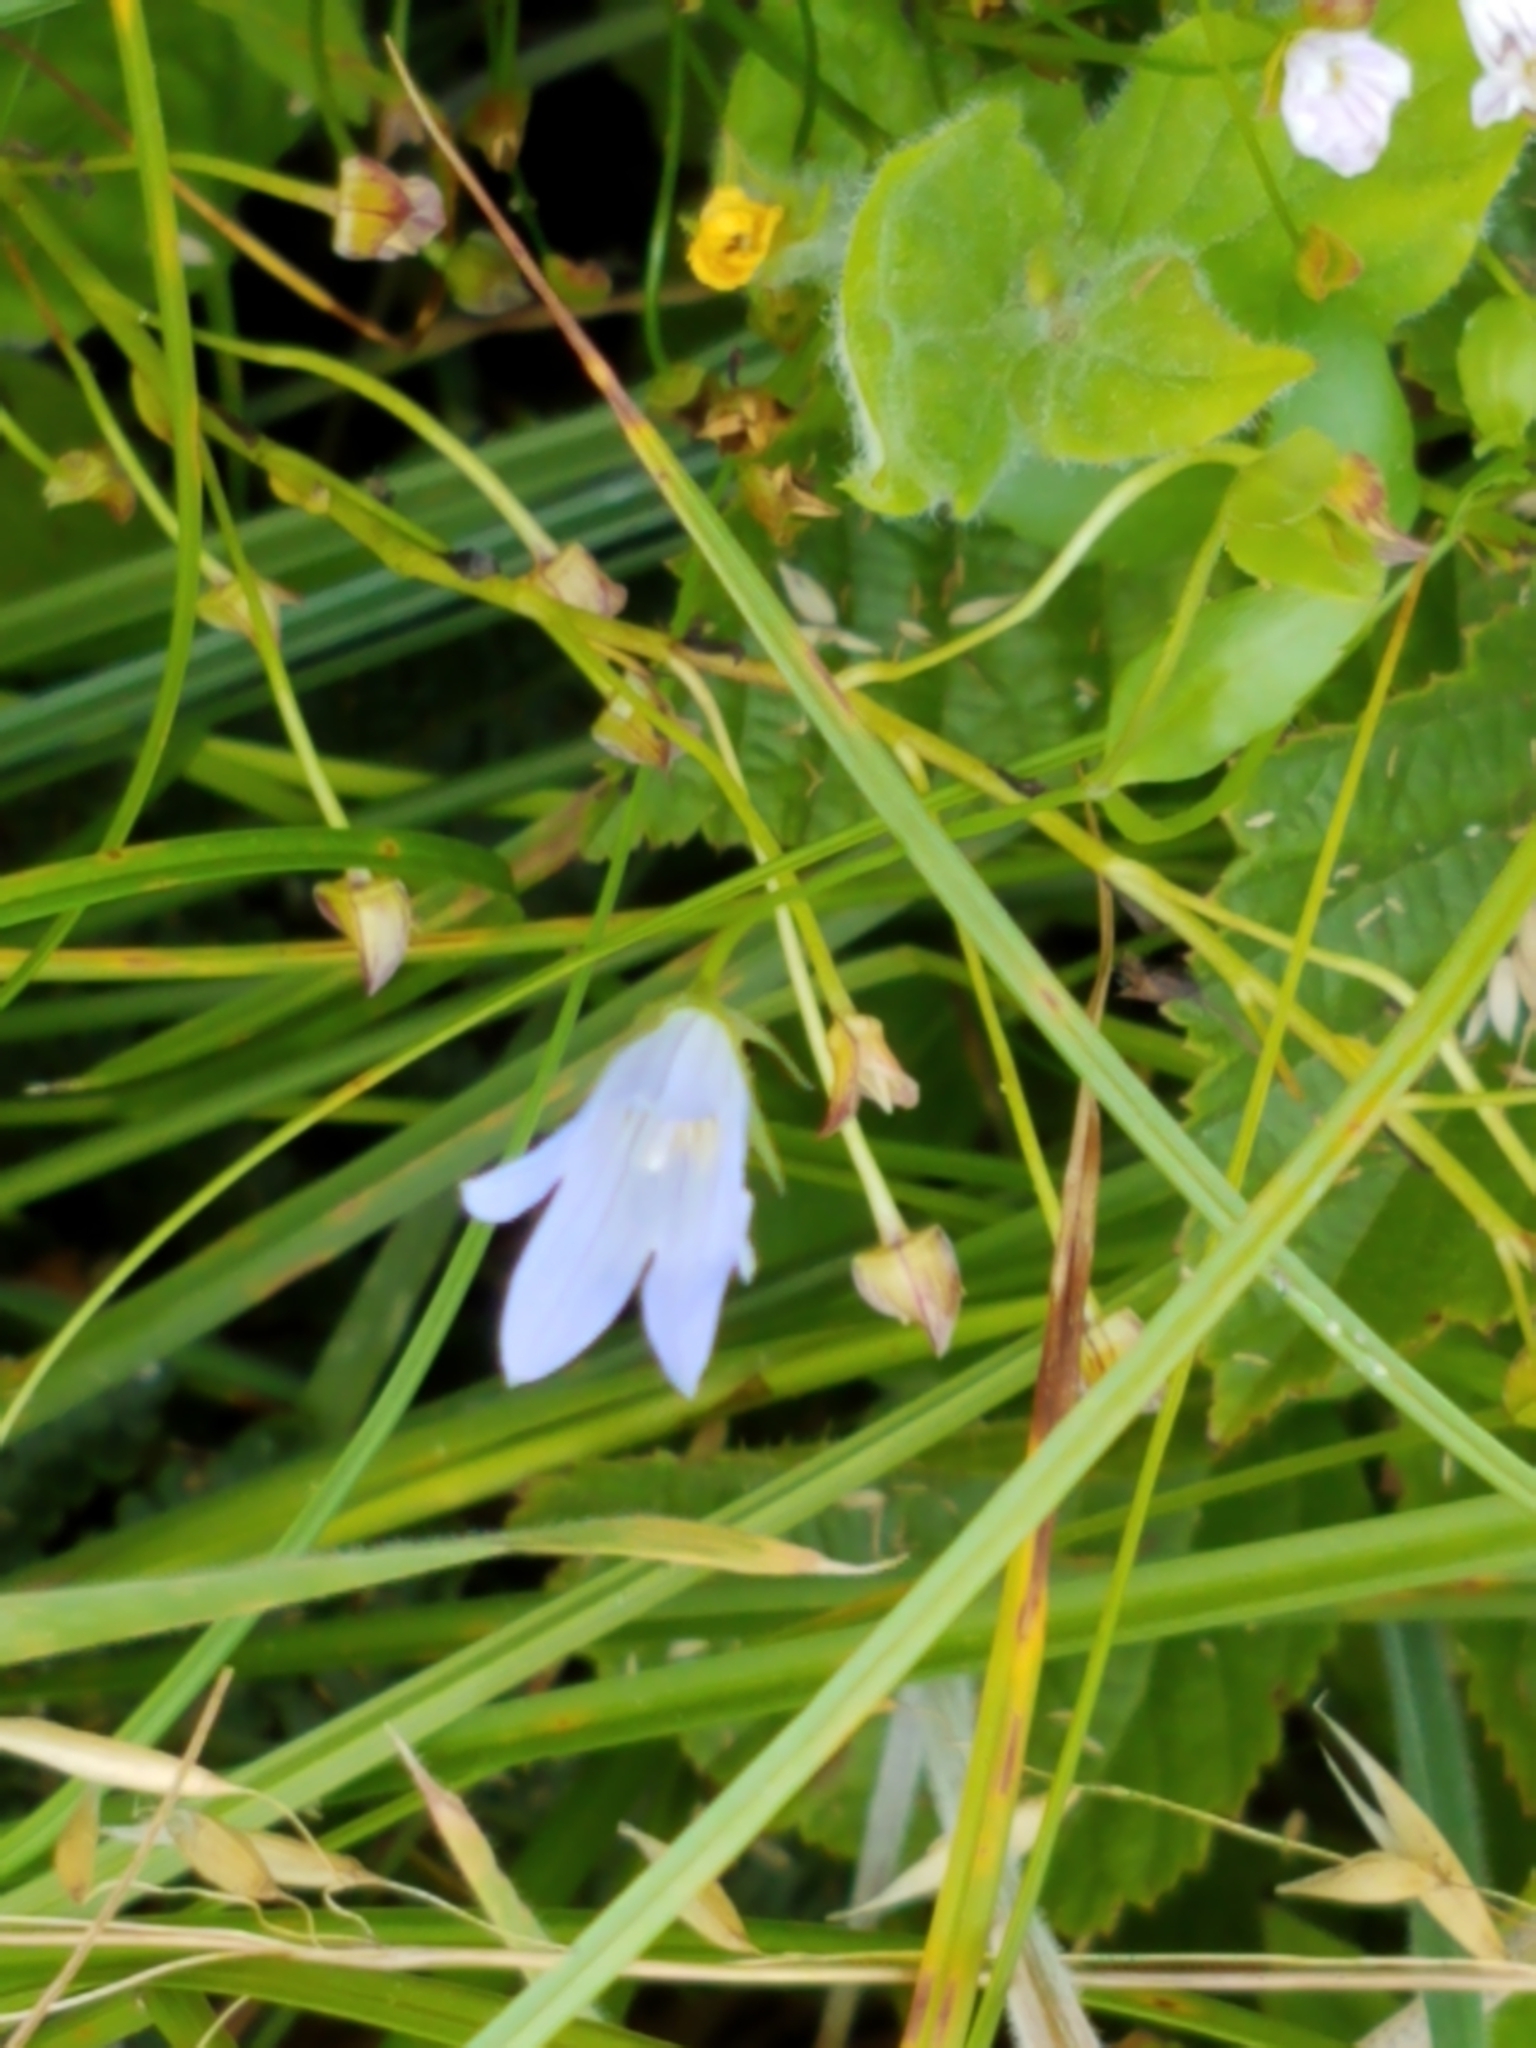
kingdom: Plantae
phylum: Tracheophyta
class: Magnoliopsida
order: Asterales
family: Campanulaceae
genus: Eastwoodiella
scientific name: Eastwoodiella californica
